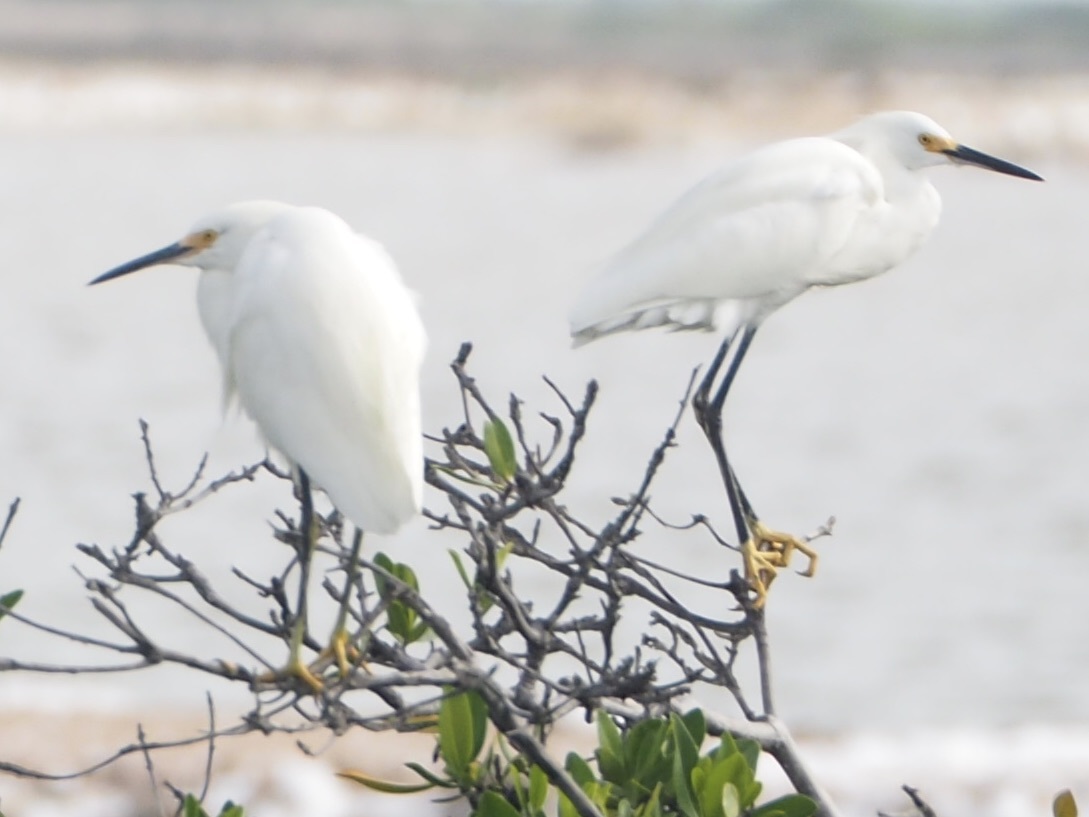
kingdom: Animalia
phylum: Chordata
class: Aves
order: Pelecaniformes
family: Ardeidae
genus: Egretta
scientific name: Egretta thula
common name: Snowy egret
